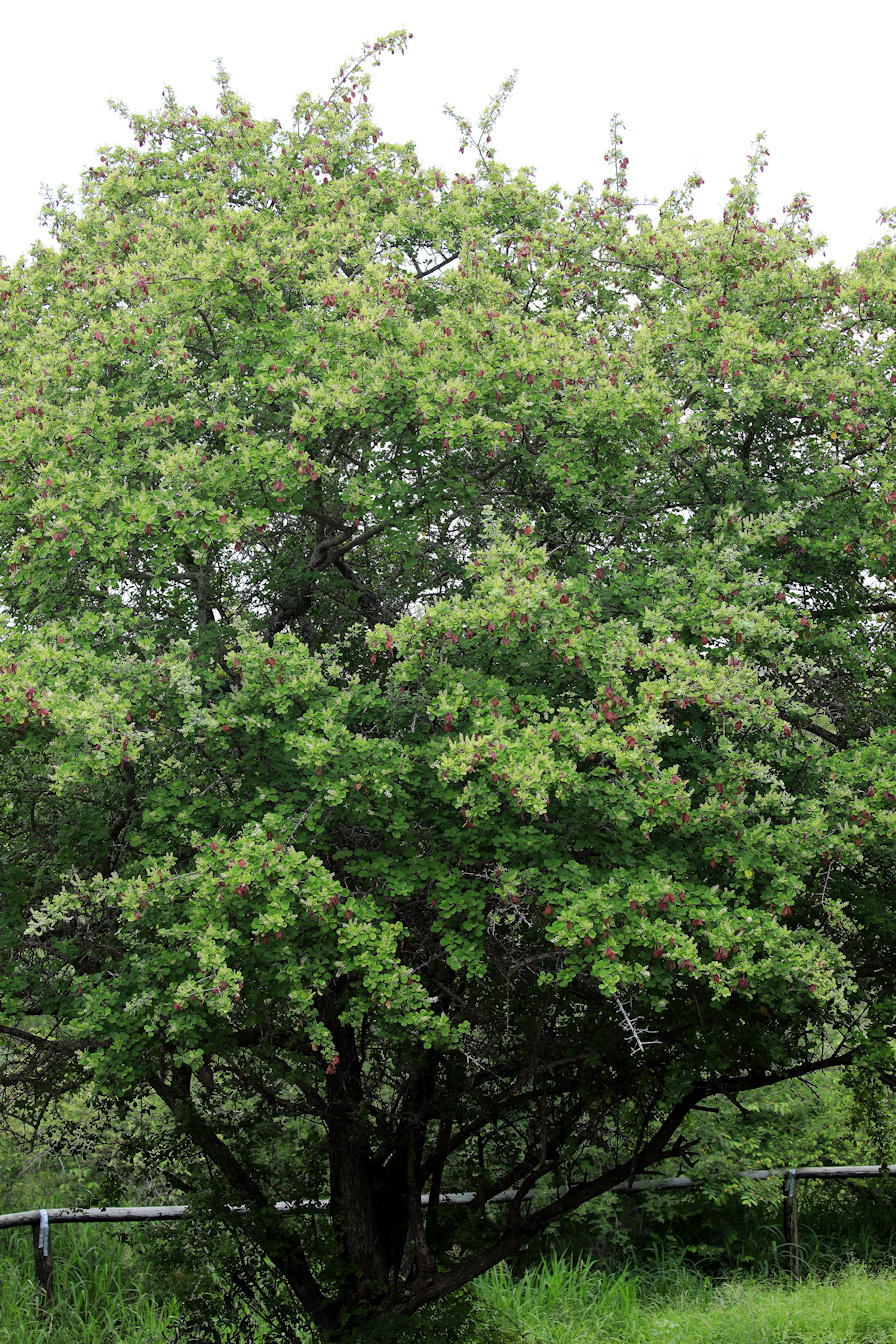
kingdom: Plantae
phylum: Tracheophyta
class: Magnoliopsida
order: Myrtales
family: Combretaceae
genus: Terminalia
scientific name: Terminalia prunioides
